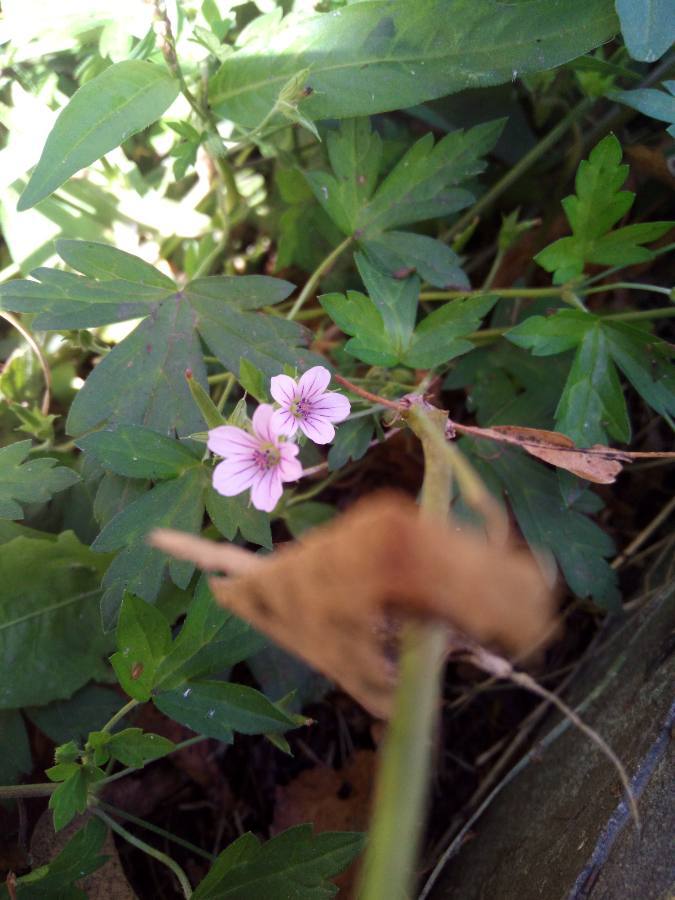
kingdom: Plantae
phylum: Tracheophyta
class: Magnoliopsida
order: Geraniales
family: Geraniaceae
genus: Geranium
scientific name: Geranium sibiricum
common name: Siberian crane's-bill
